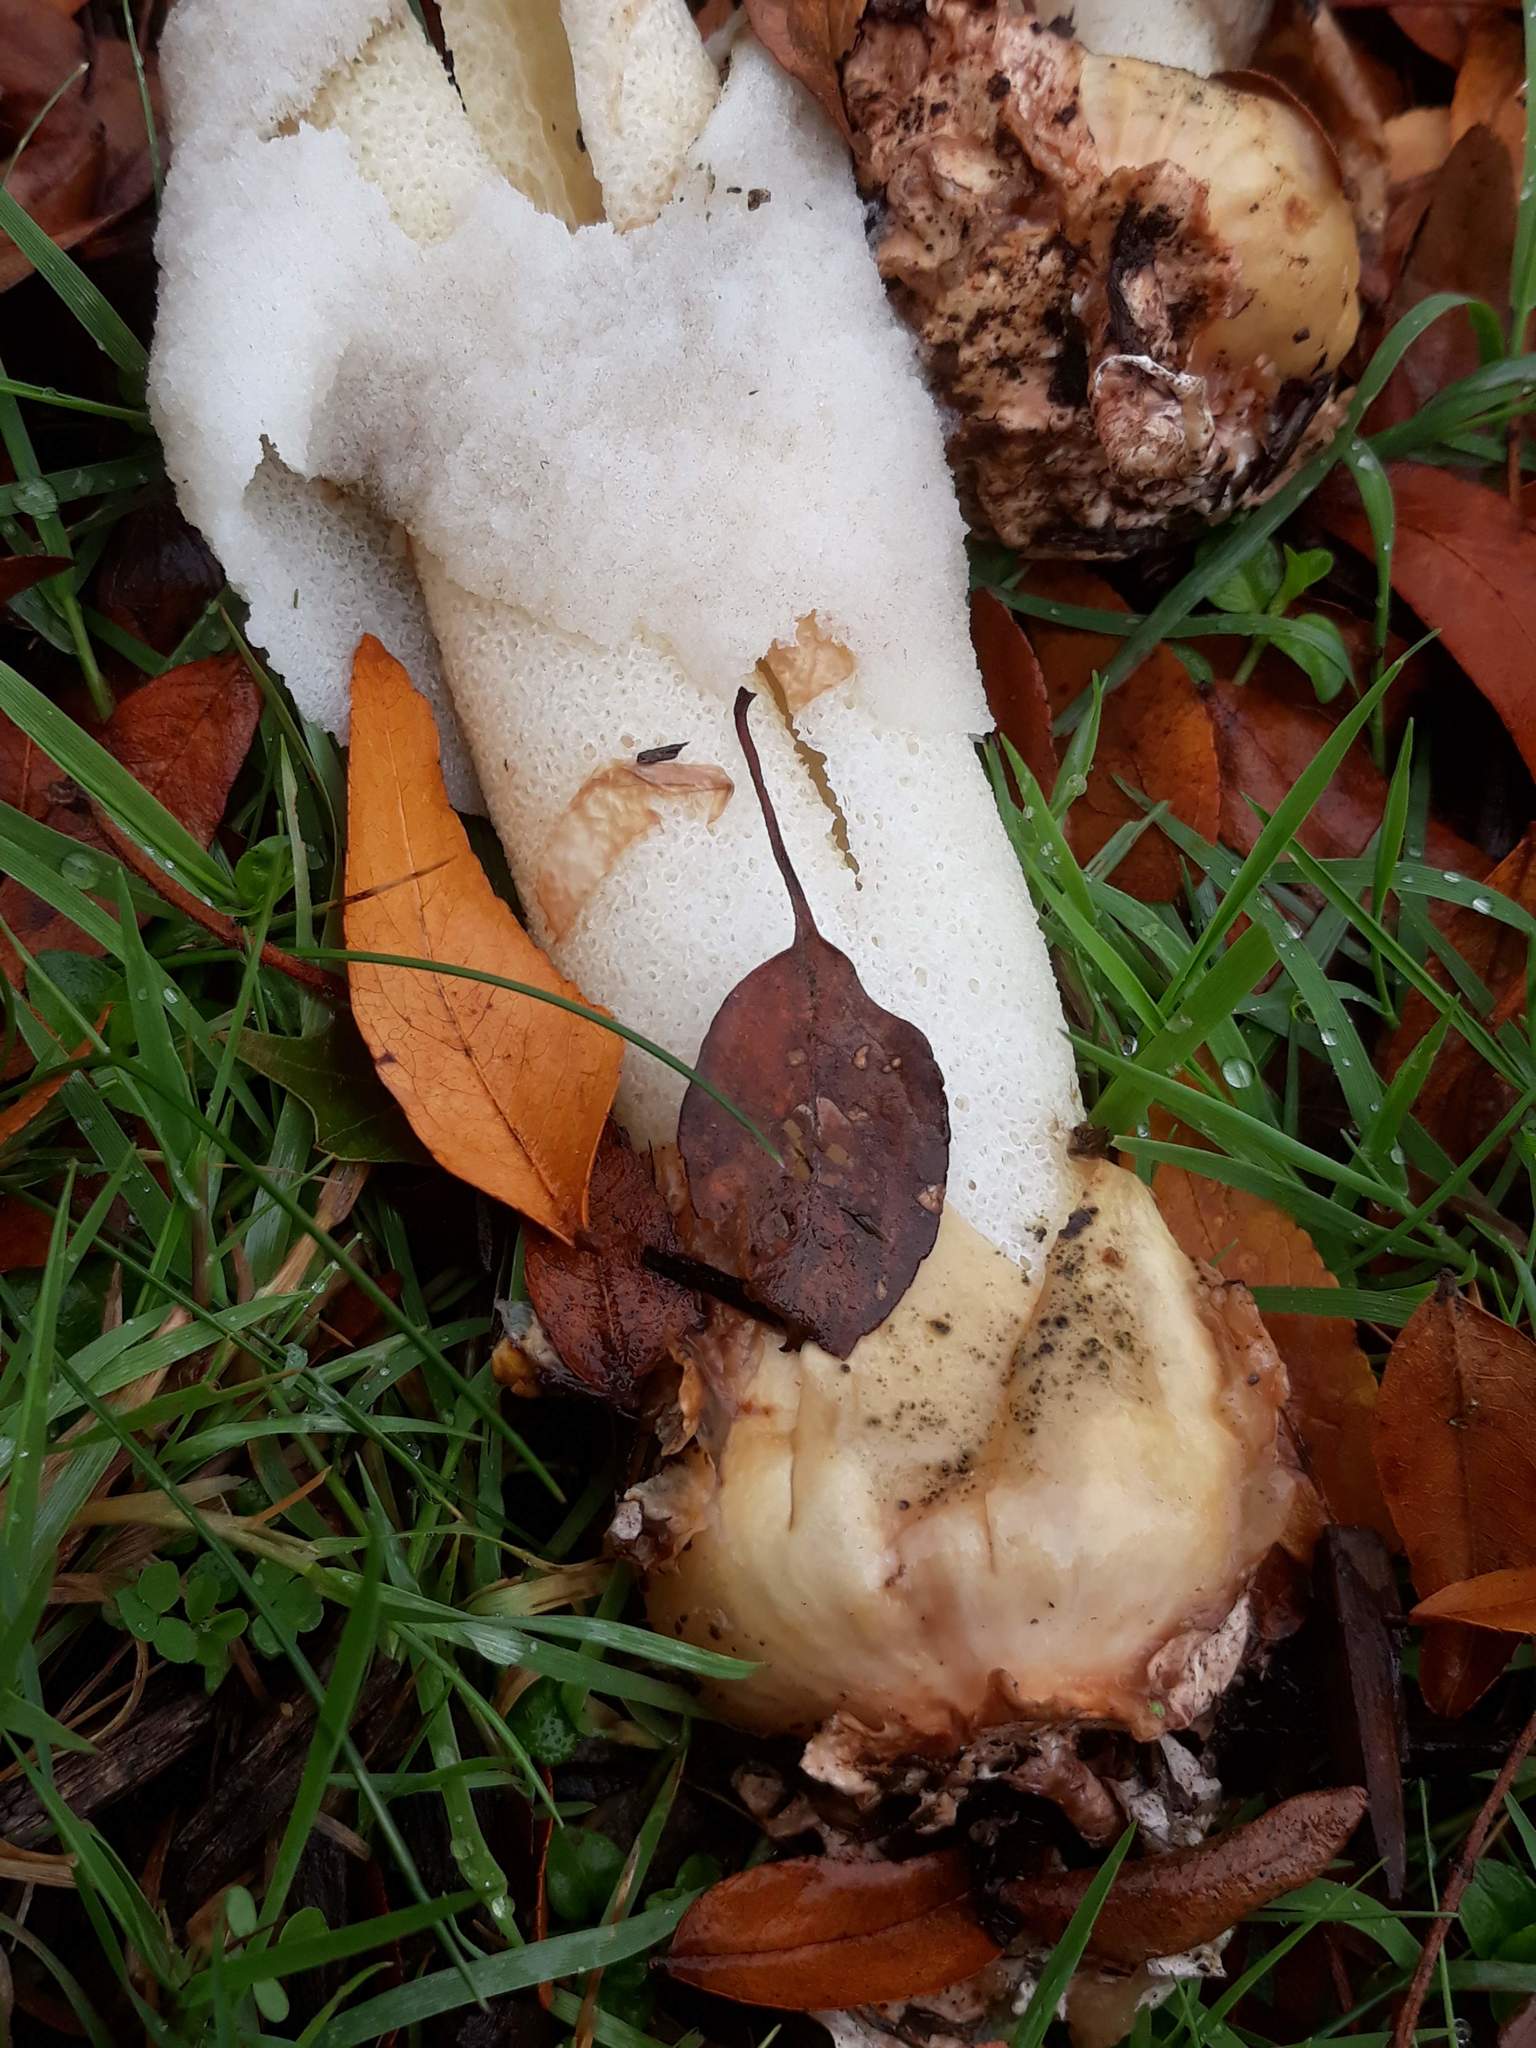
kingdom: Fungi
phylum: Basidiomycota
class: Agaricomycetes
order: Phallales
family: Phallaceae
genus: Phallus
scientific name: Phallus ravenelii
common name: Ravenel's stinkhorn
